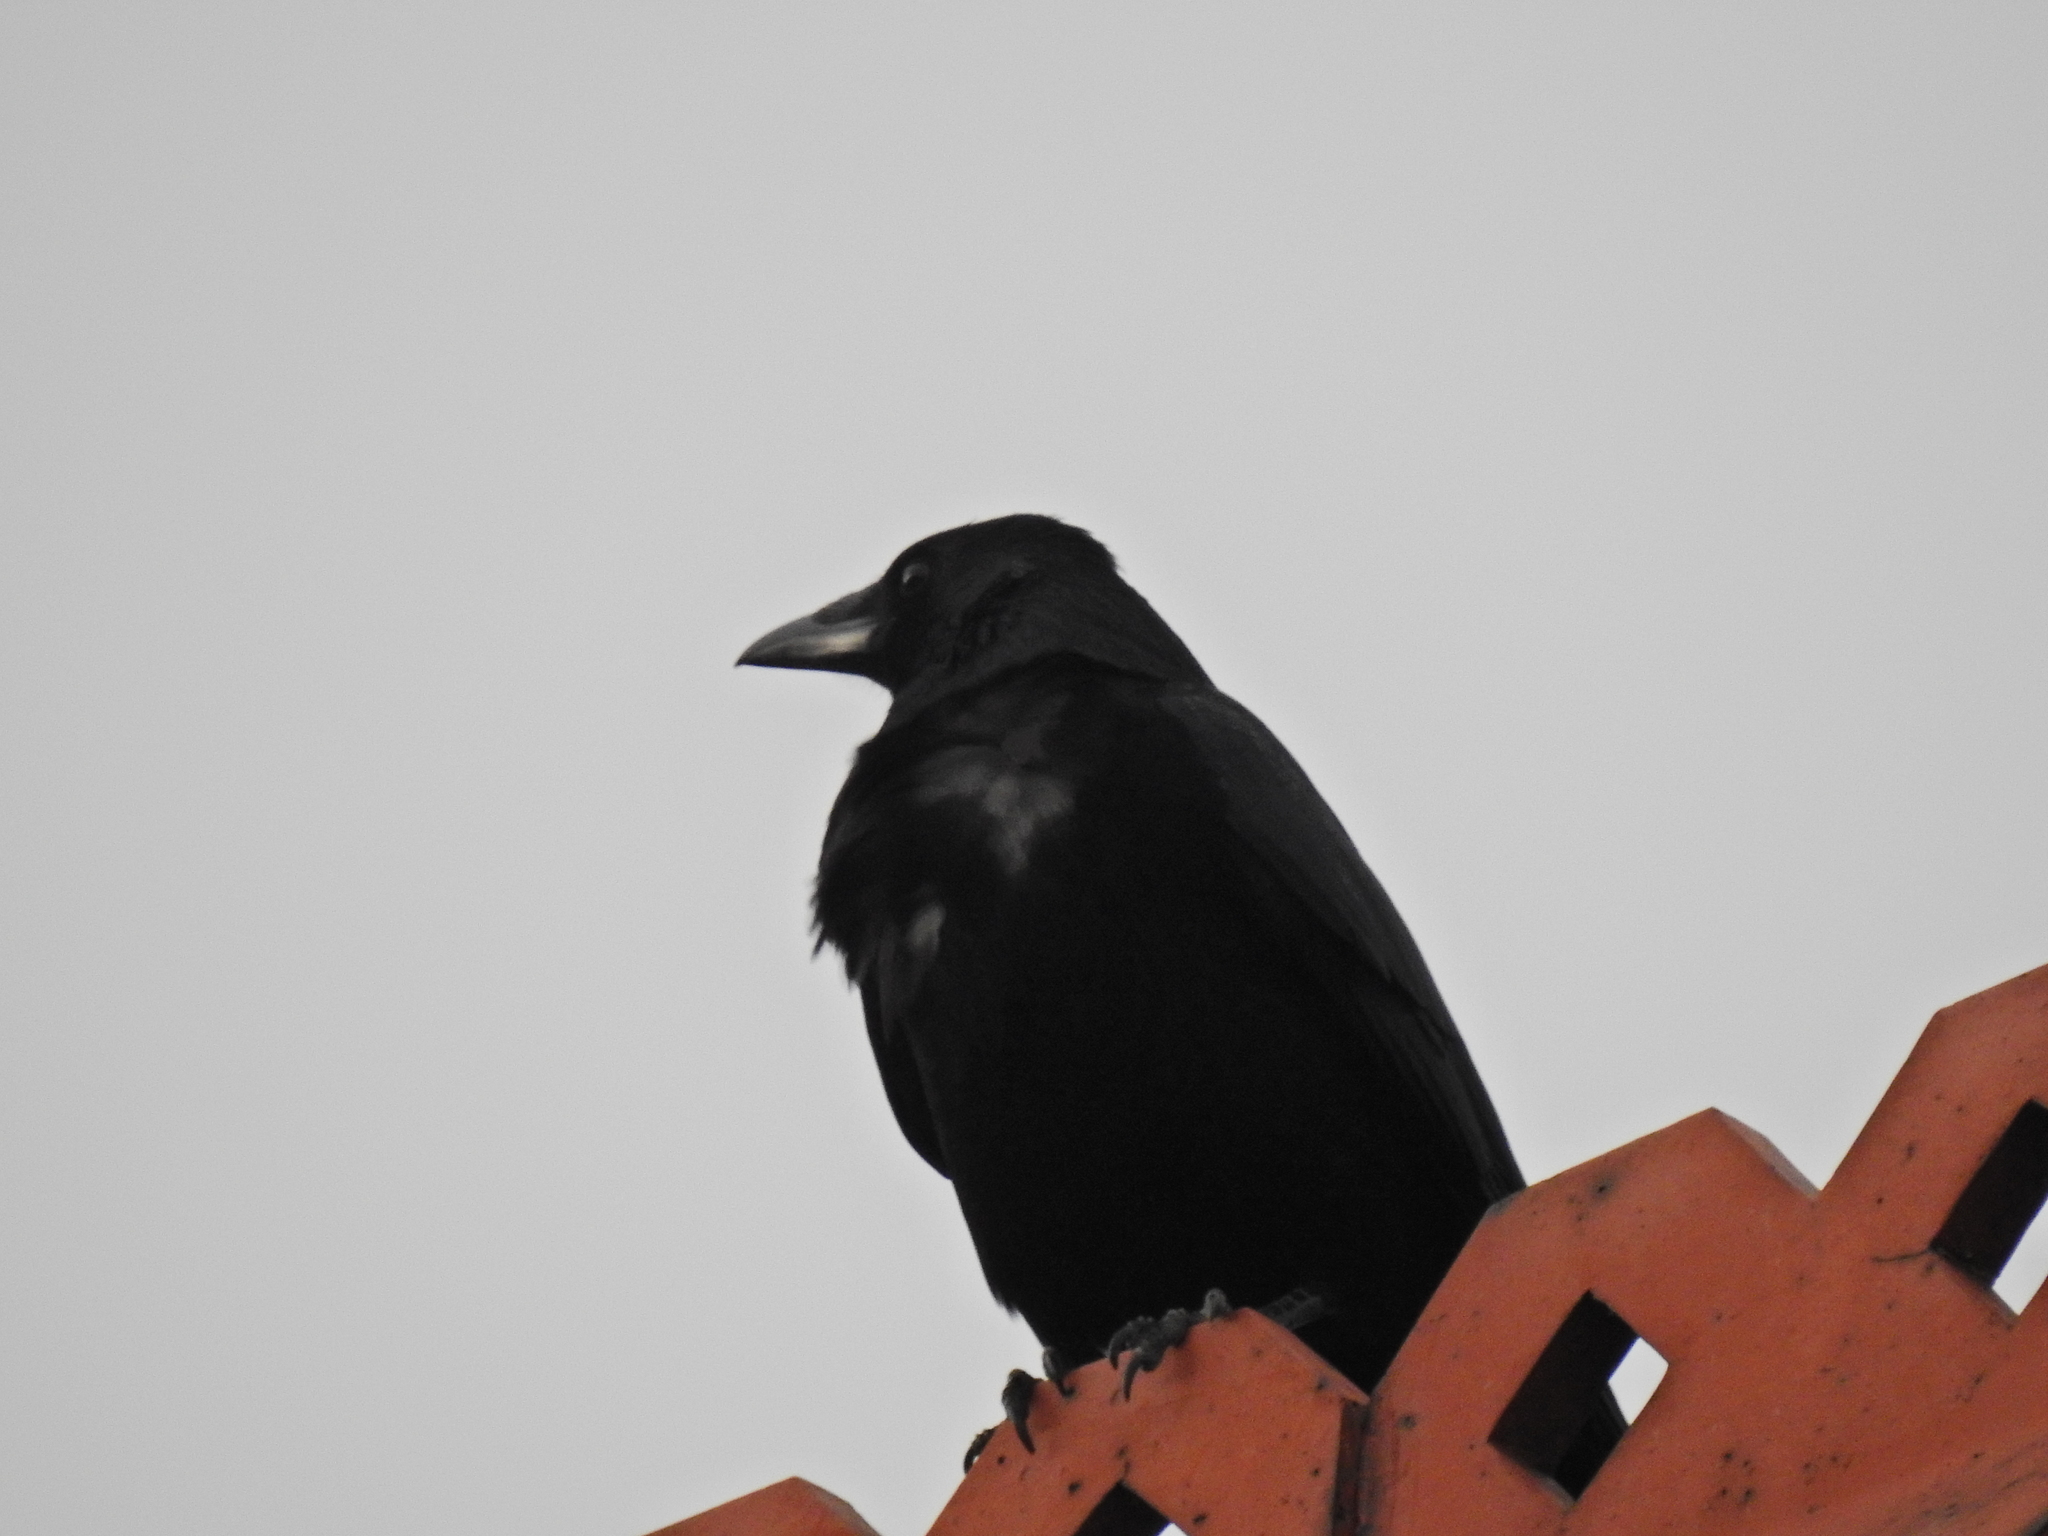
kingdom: Animalia
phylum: Chordata
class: Aves
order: Passeriformes
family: Corvidae
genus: Corvus
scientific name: Corvus corone
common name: Carrion crow
